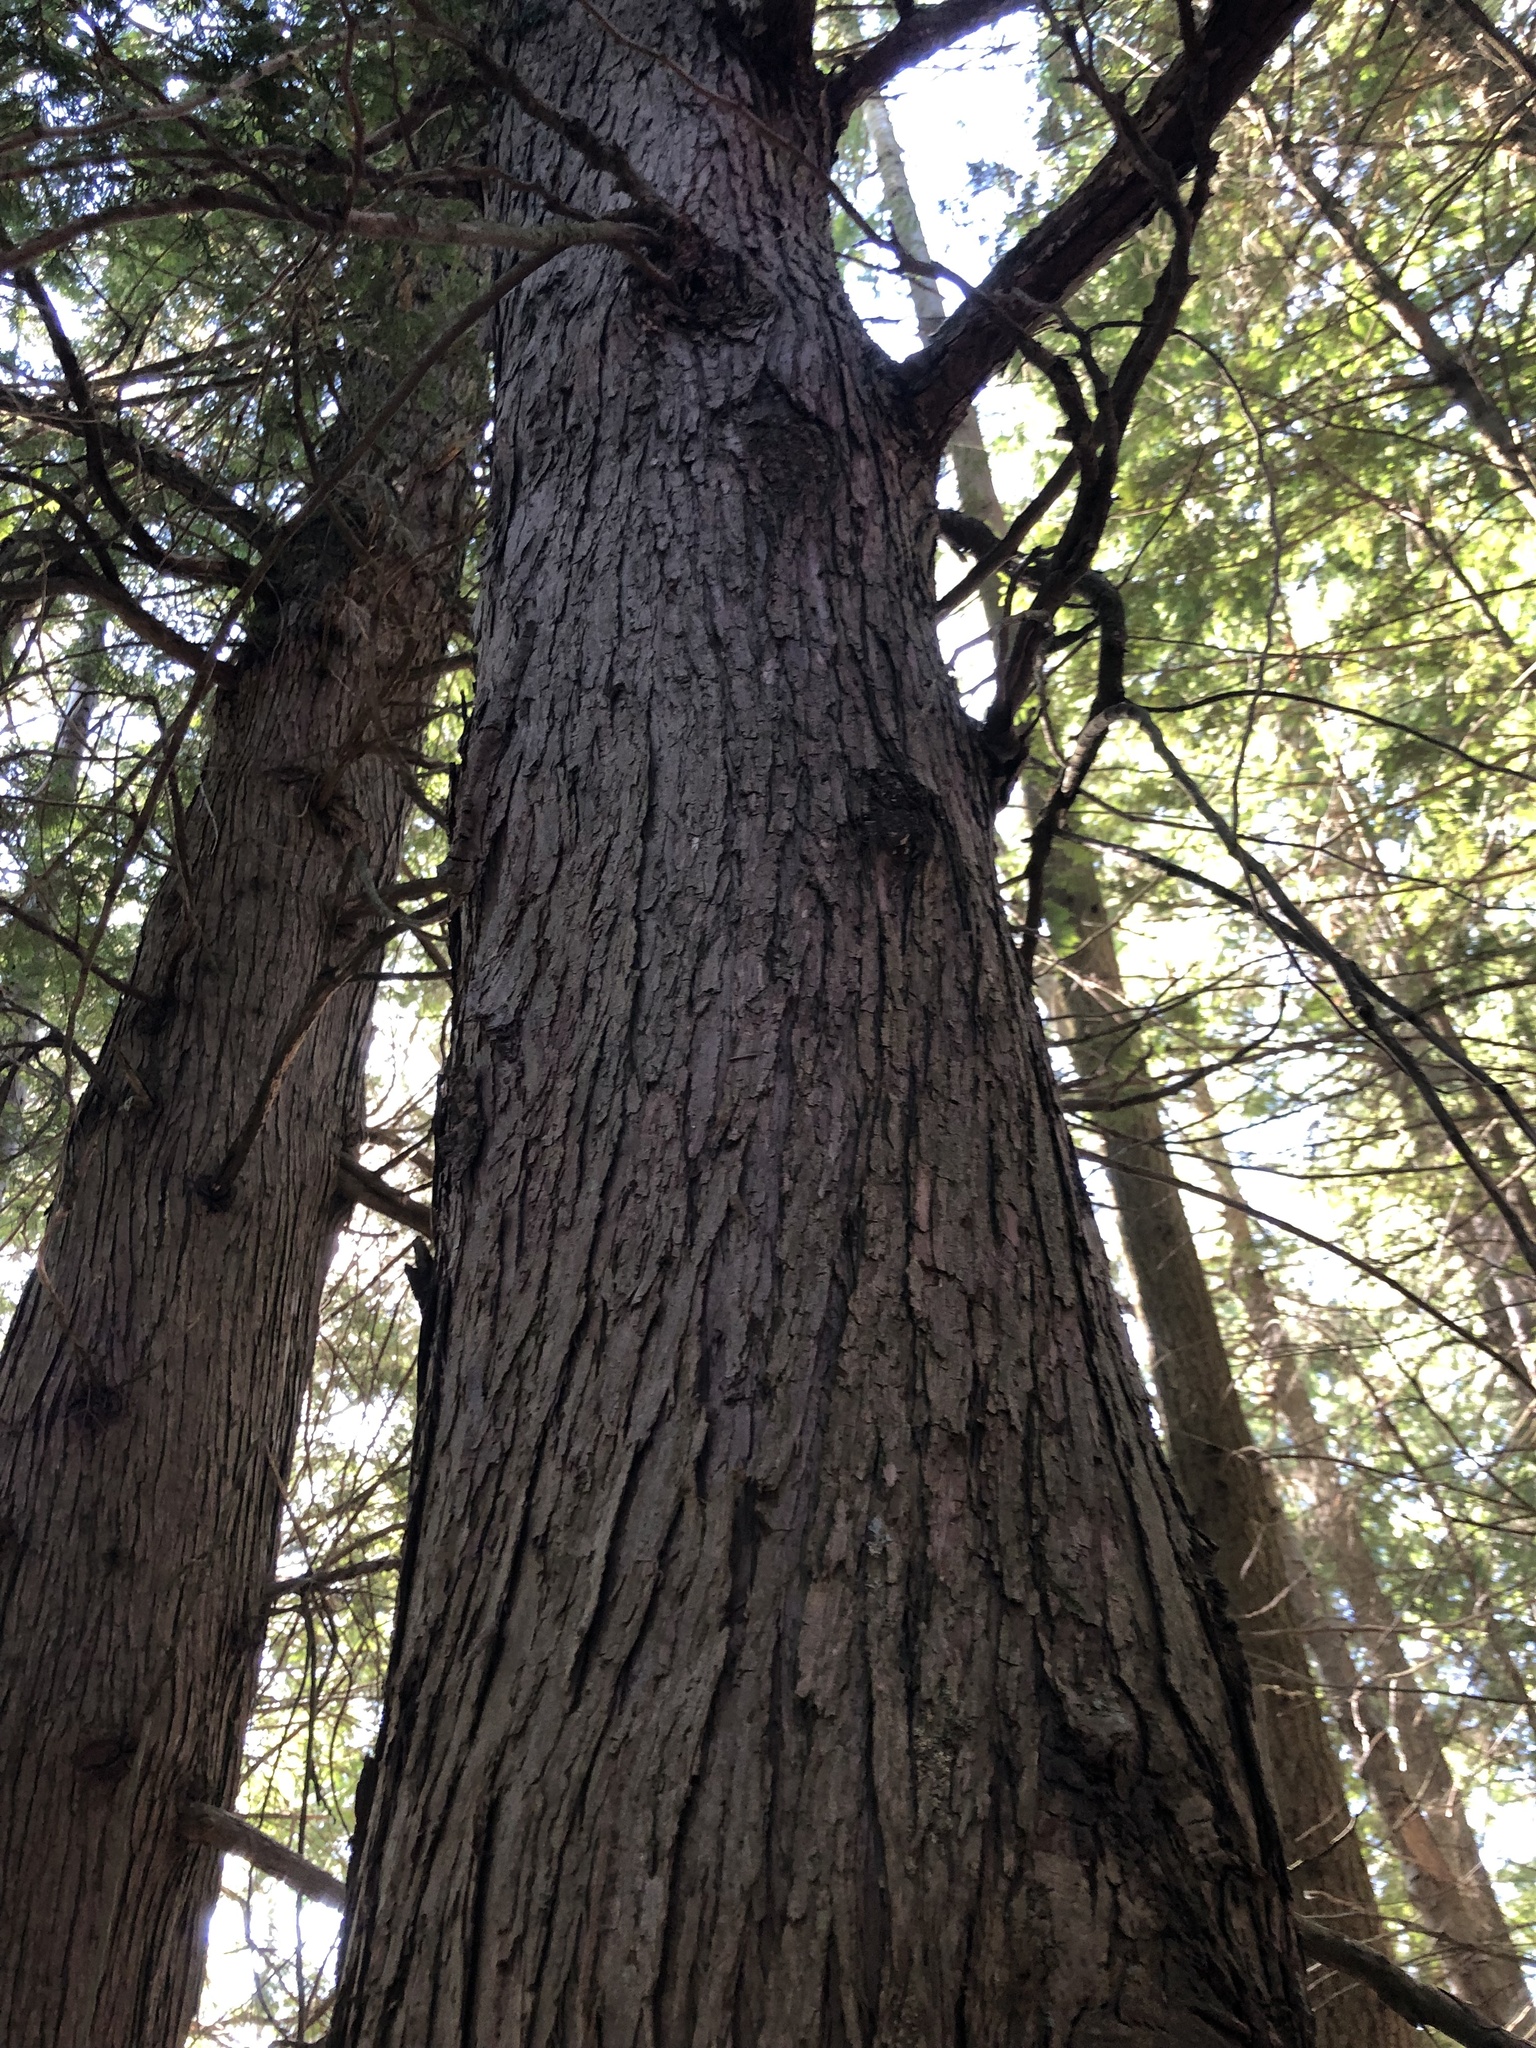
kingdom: Plantae
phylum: Tracheophyta
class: Pinopsida
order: Pinales
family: Cupressaceae
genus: Thuja
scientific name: Thuja plicata
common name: Western red-cedar
